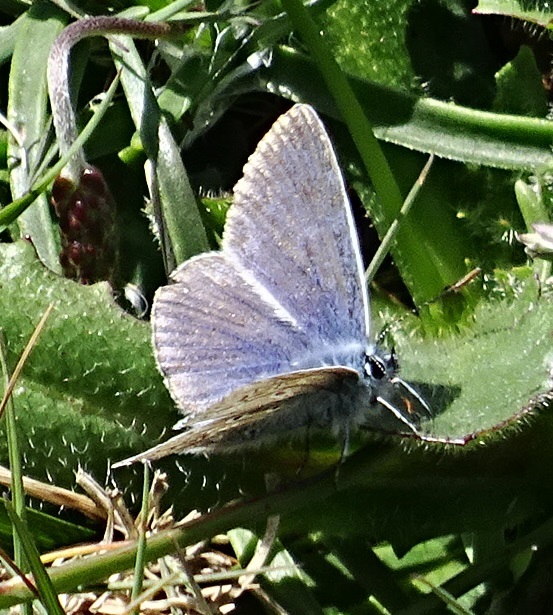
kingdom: Animalia
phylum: Arthropoda
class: Insecta
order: Lepidoptera
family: Lycaenidae
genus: Polyommatus
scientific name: Polyommatus icarus
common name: Common blue
